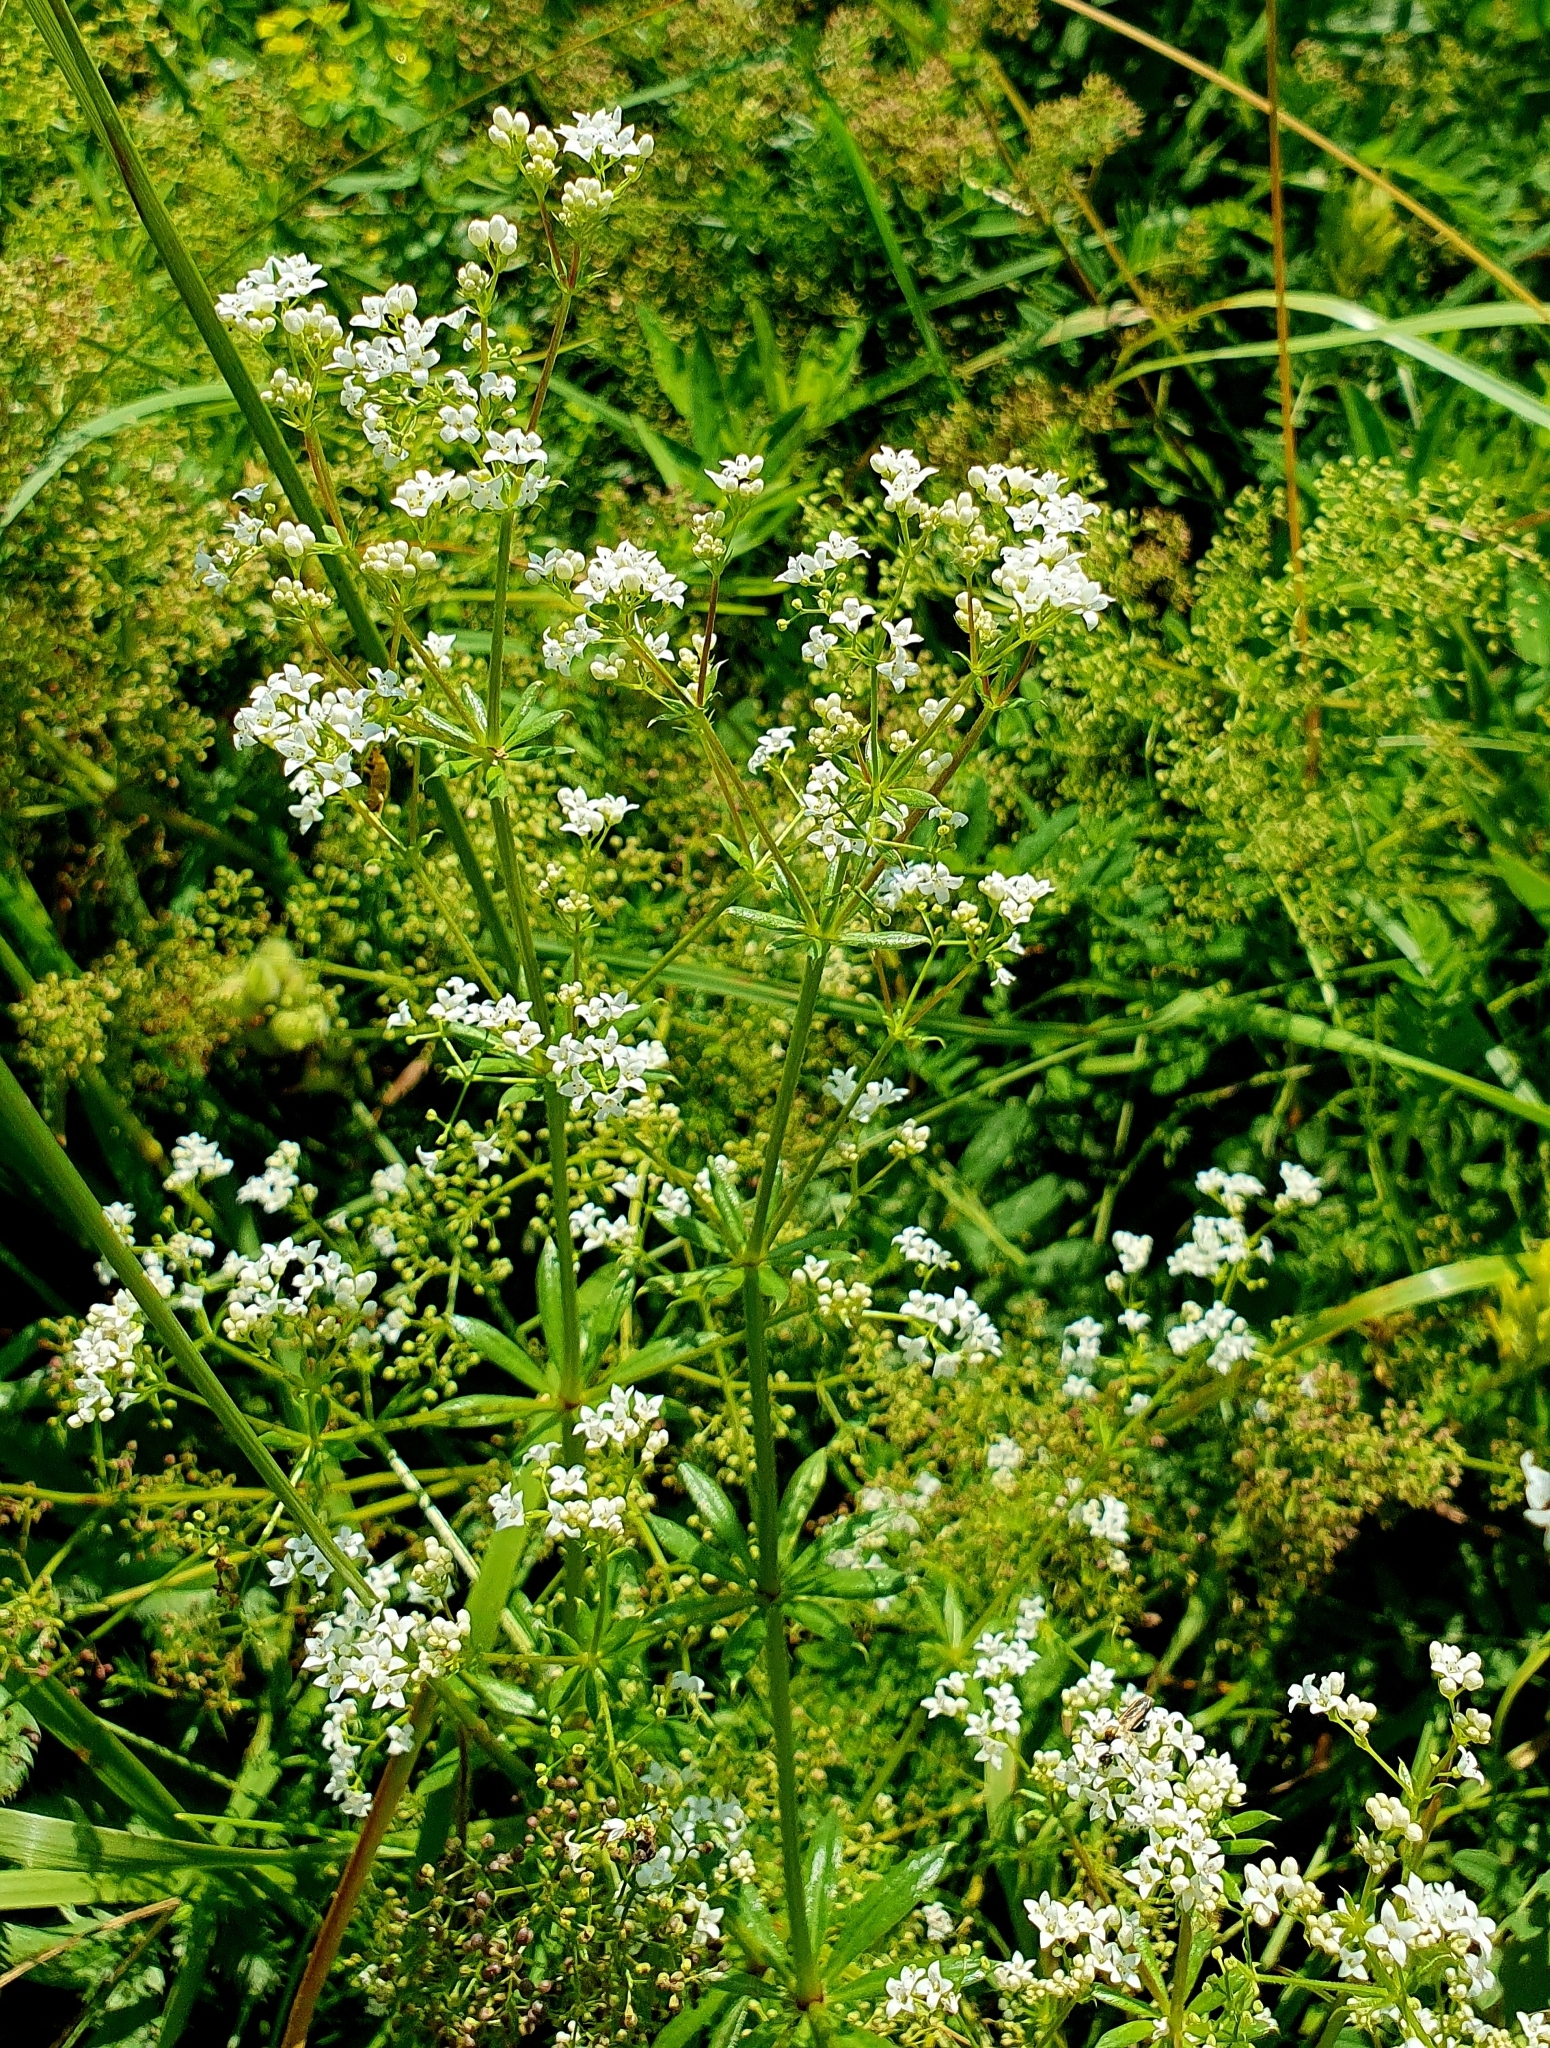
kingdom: Plantae
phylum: Tracheophyta
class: Magnoliopsida
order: Gentianales
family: Rubiaceae
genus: Galium
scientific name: Galium rivale
